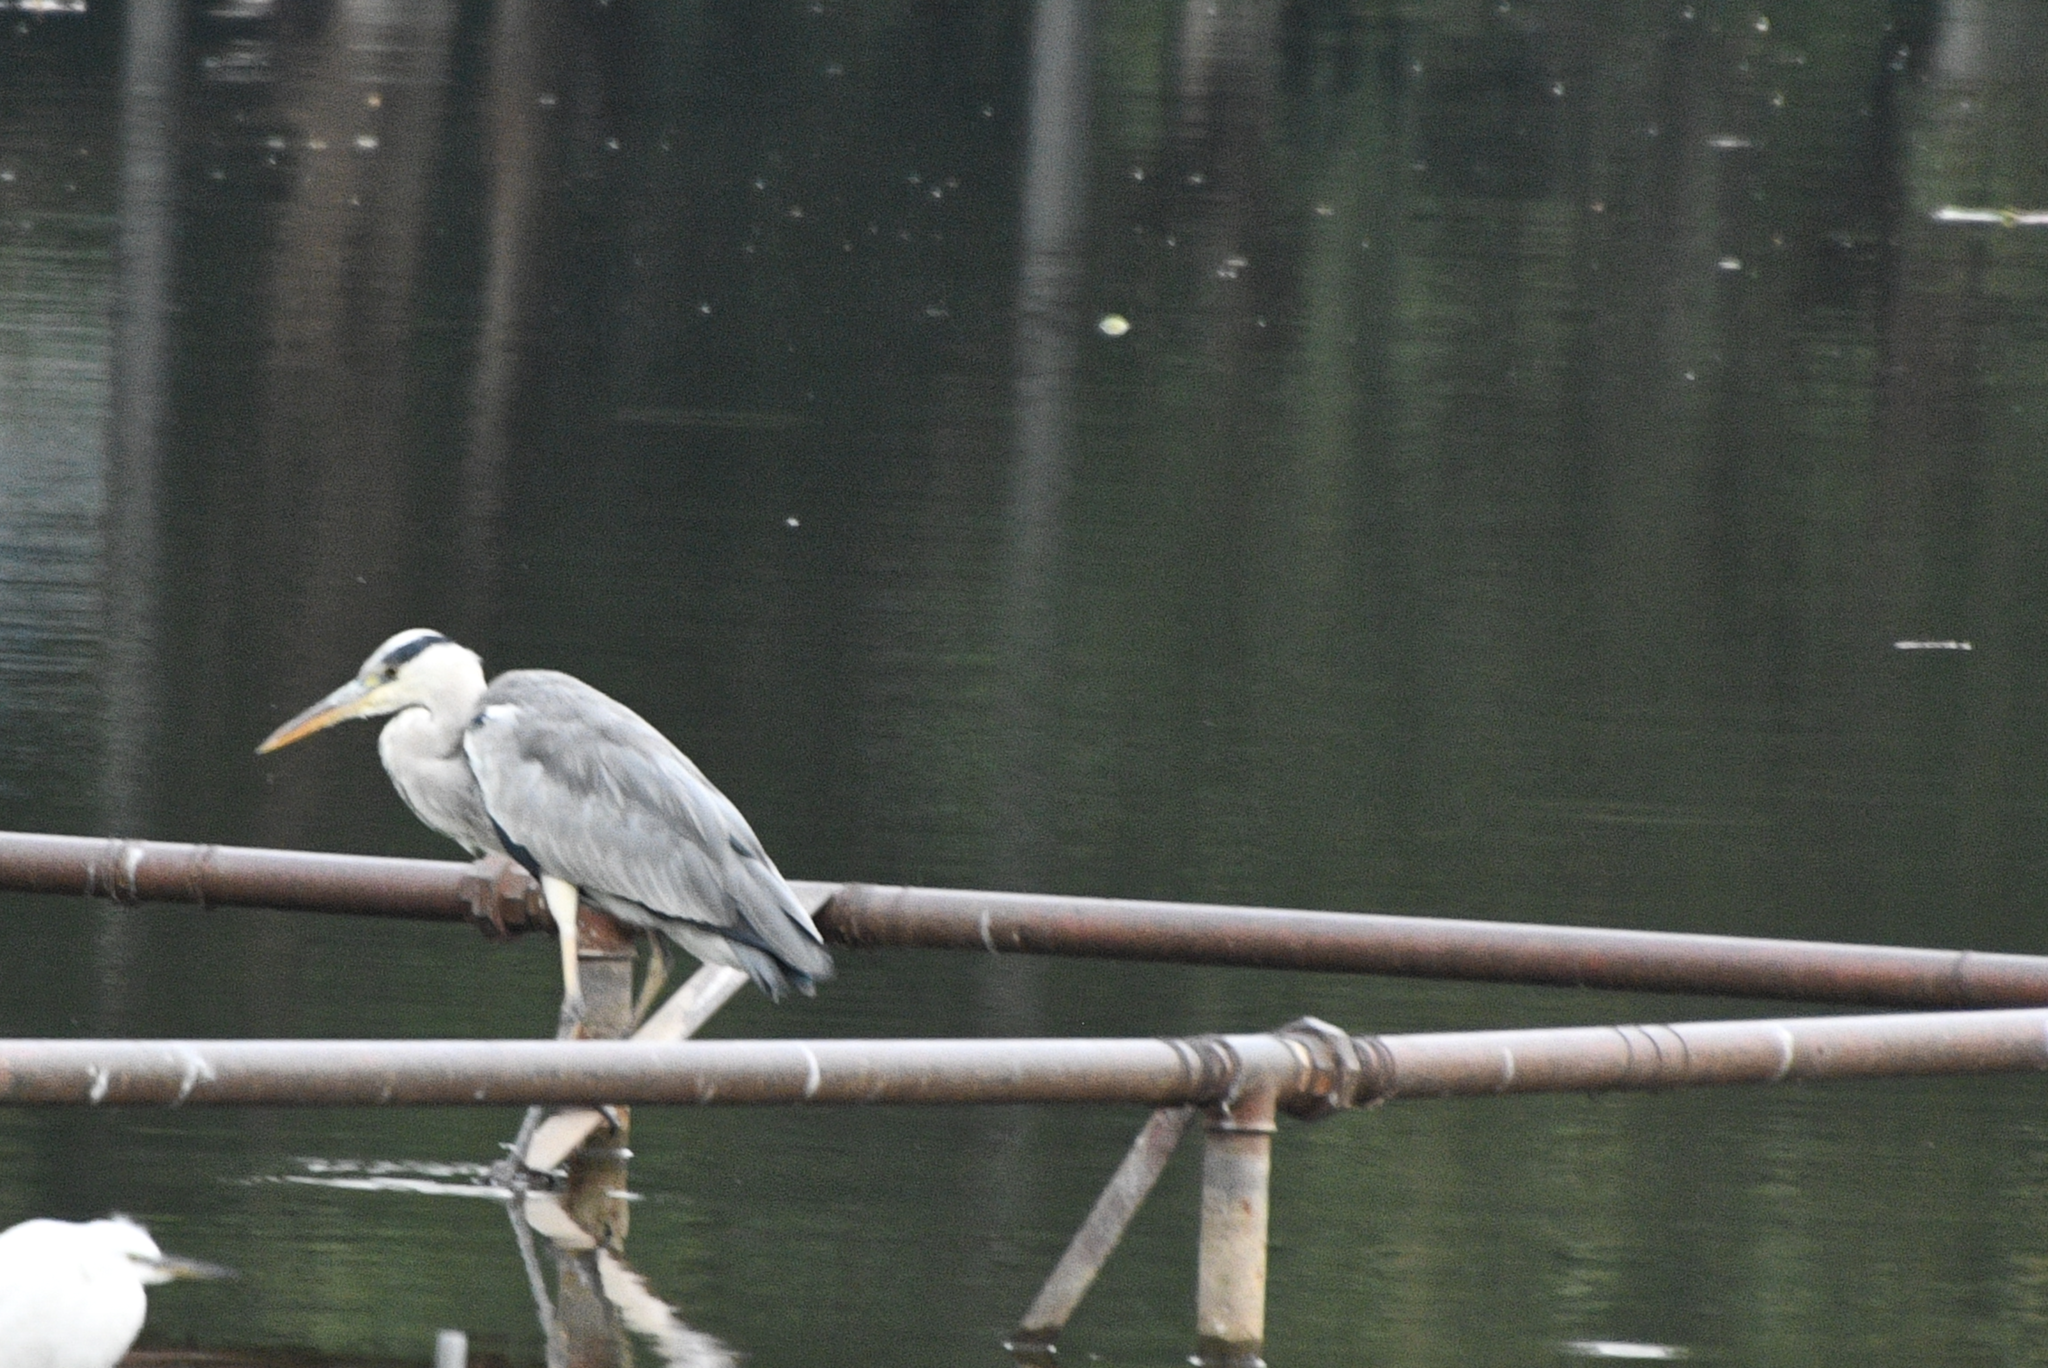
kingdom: Animalia
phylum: Chordata
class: Aves
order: Pelecaniformes
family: Ardeidae
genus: Ardea
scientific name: Ardea cinerea
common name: Grey heron
